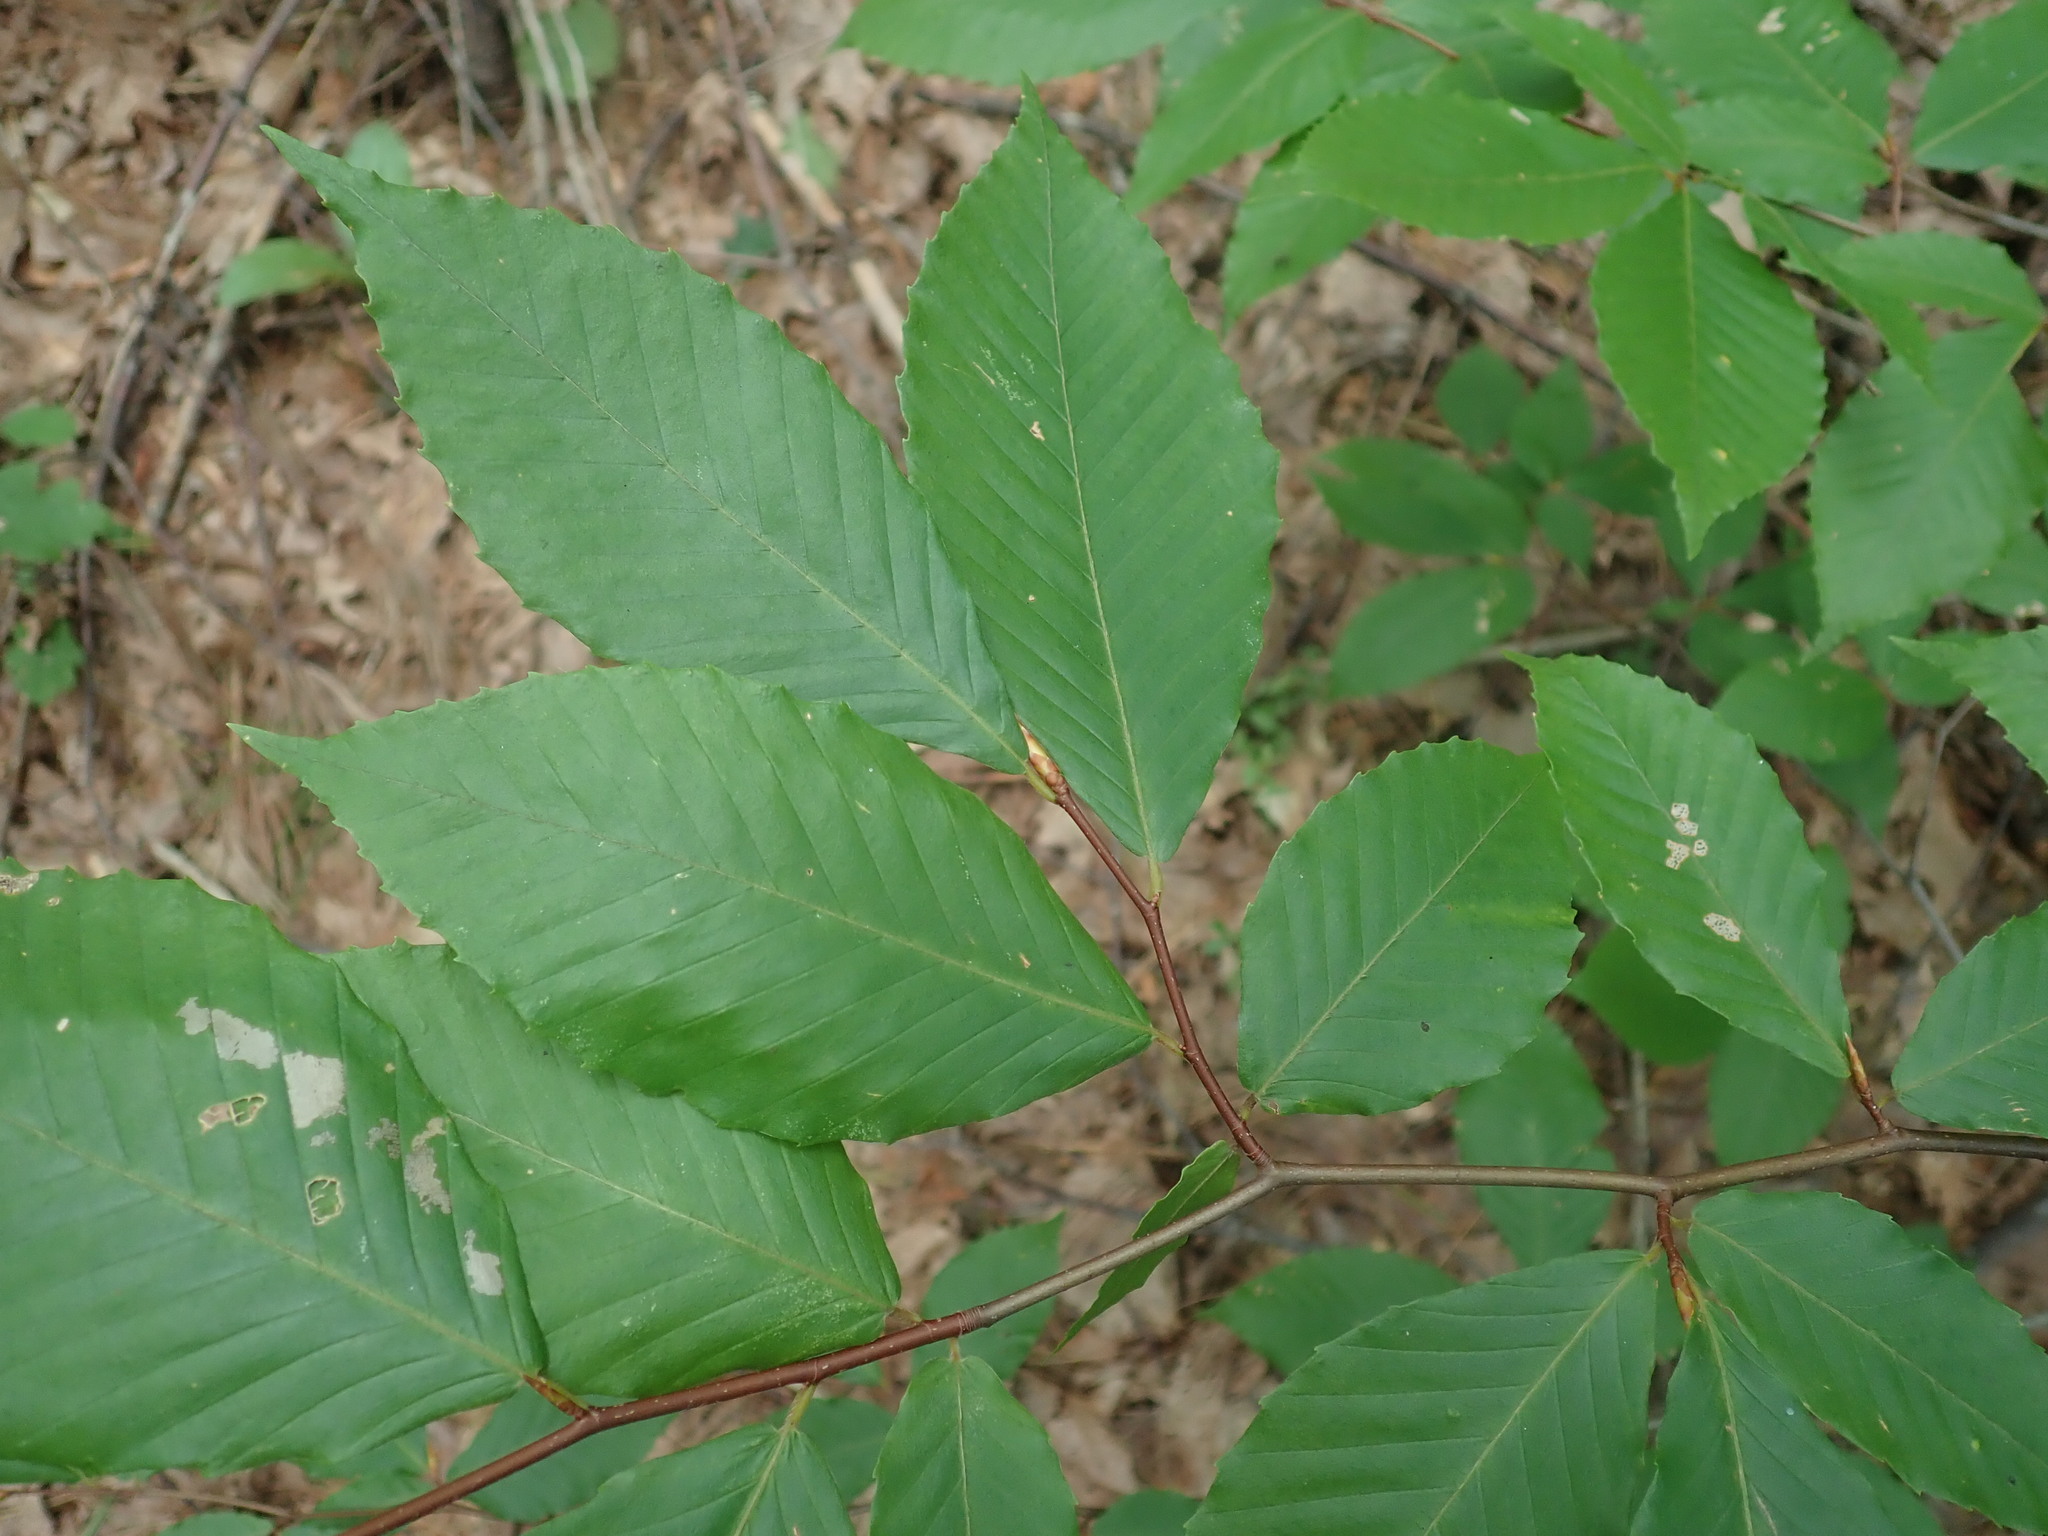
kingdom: Plantae
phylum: Tracheophyta
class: Magnoliopsida
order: Fagales
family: Fagaceae
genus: Fagus
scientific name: Fagus grandifolia
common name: American beech
